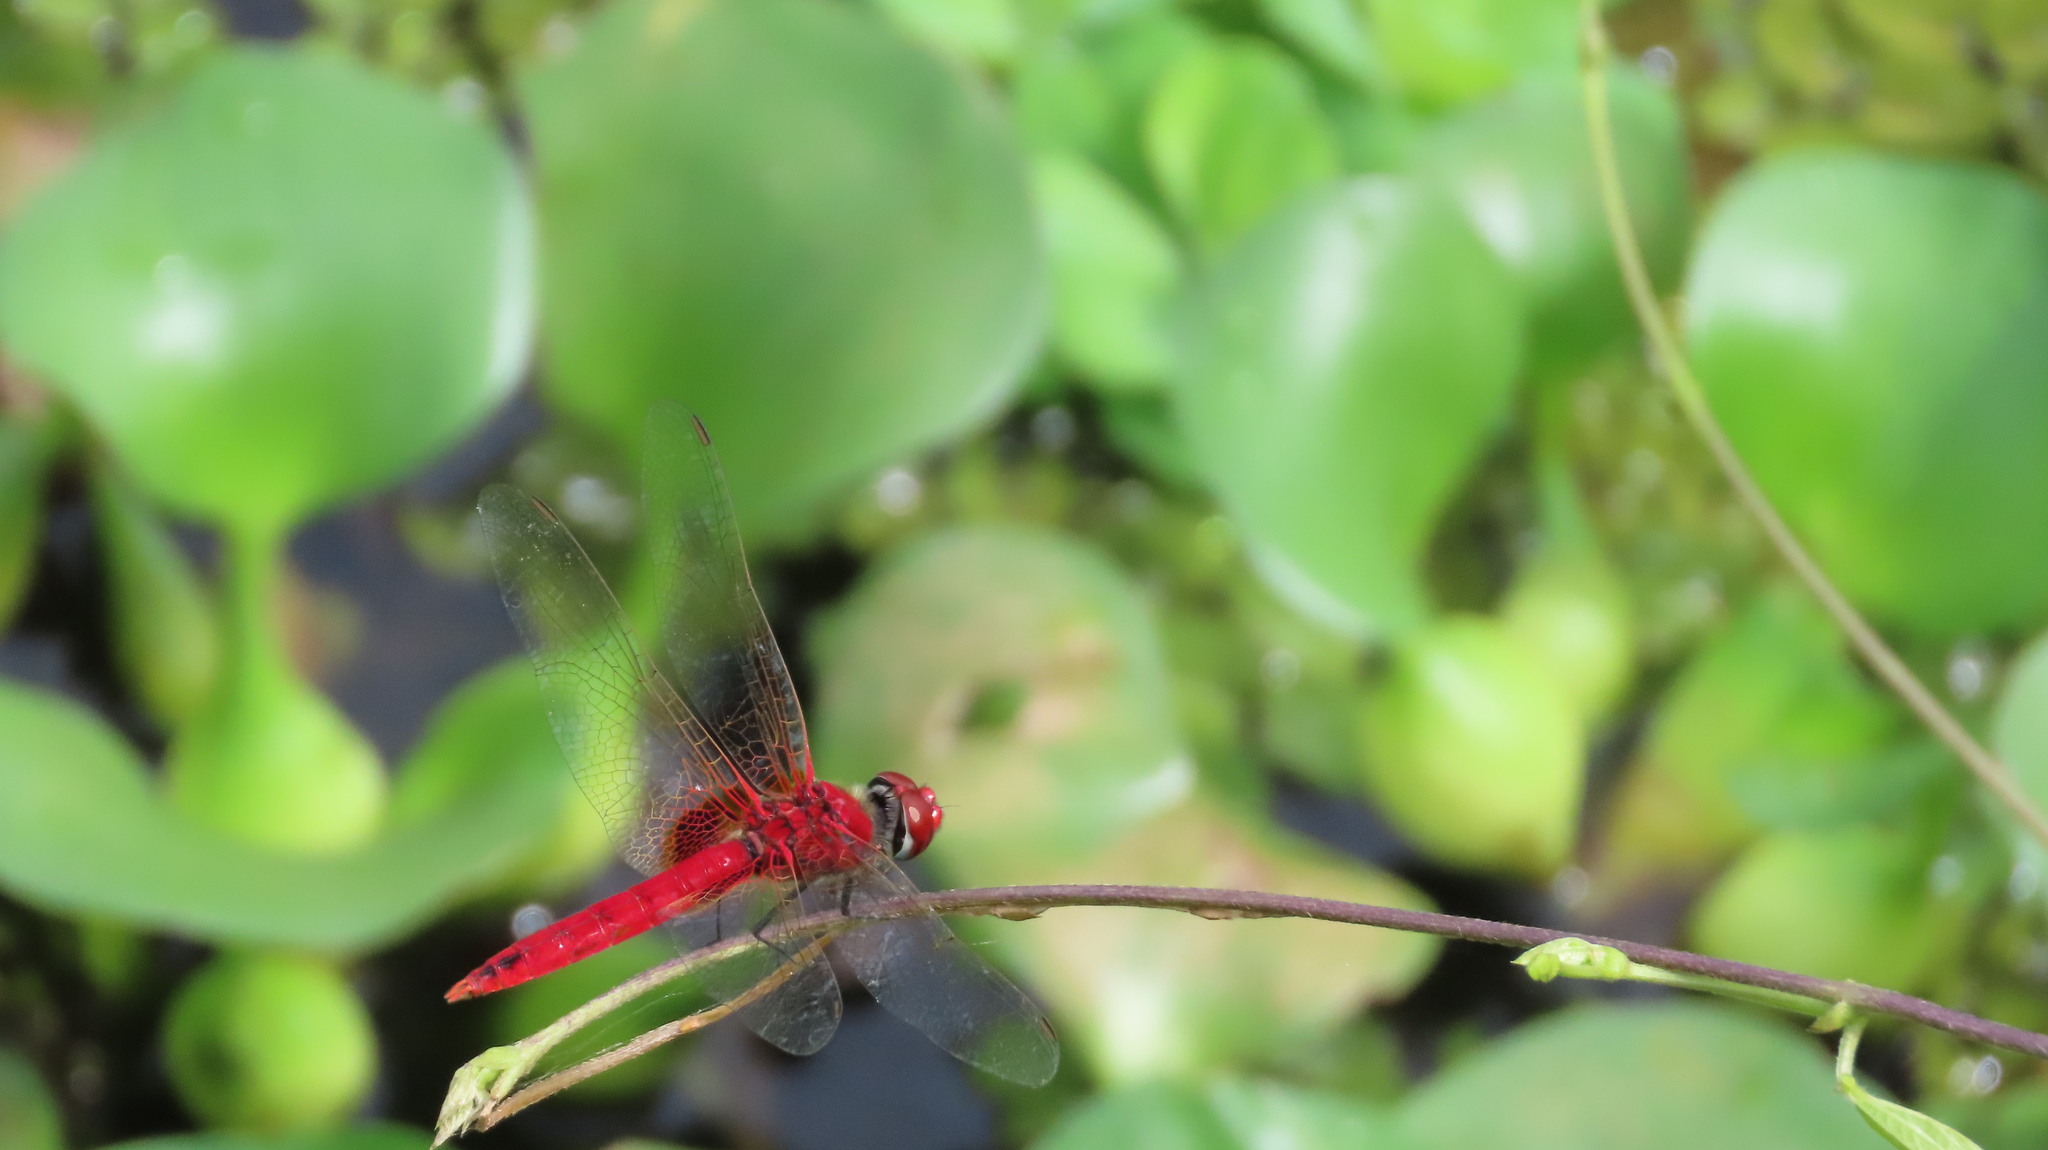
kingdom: Animalia
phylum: Arthropoda
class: Insecta
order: Odonata
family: Libellulidae
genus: Urothemis
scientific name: Urothemis signata
